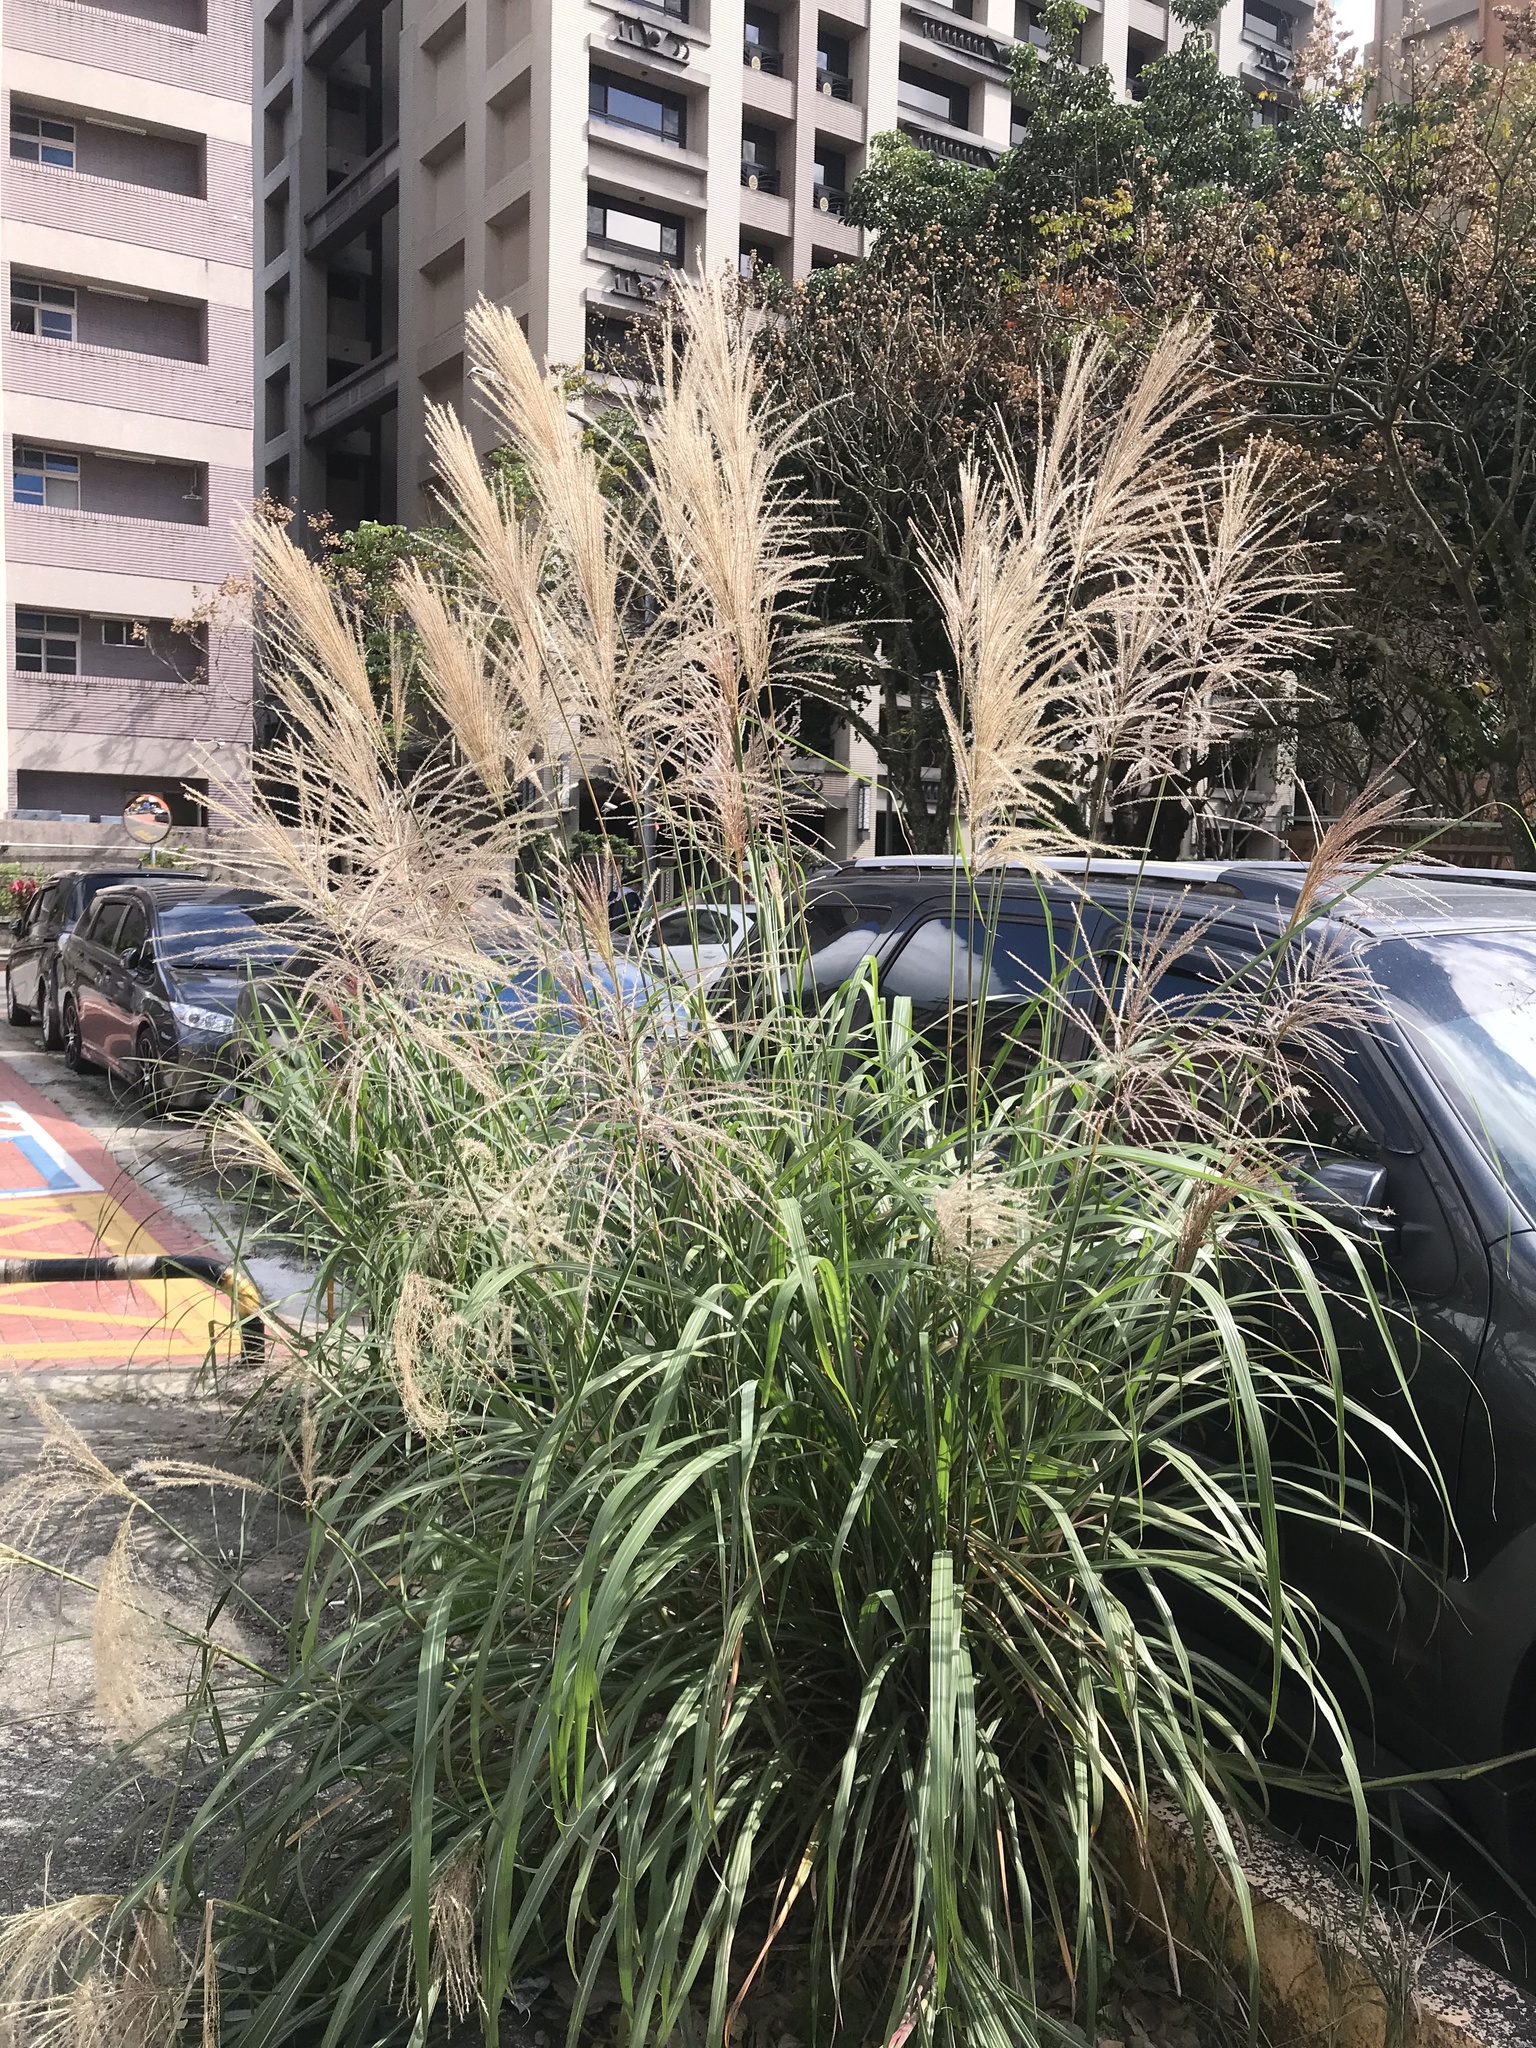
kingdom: Plantae
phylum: Tracheophyta
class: Liliopsida
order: Poales
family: Poaceae
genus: Miscanthus
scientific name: Miscanthus sinensis
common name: Chinese silvergrass
